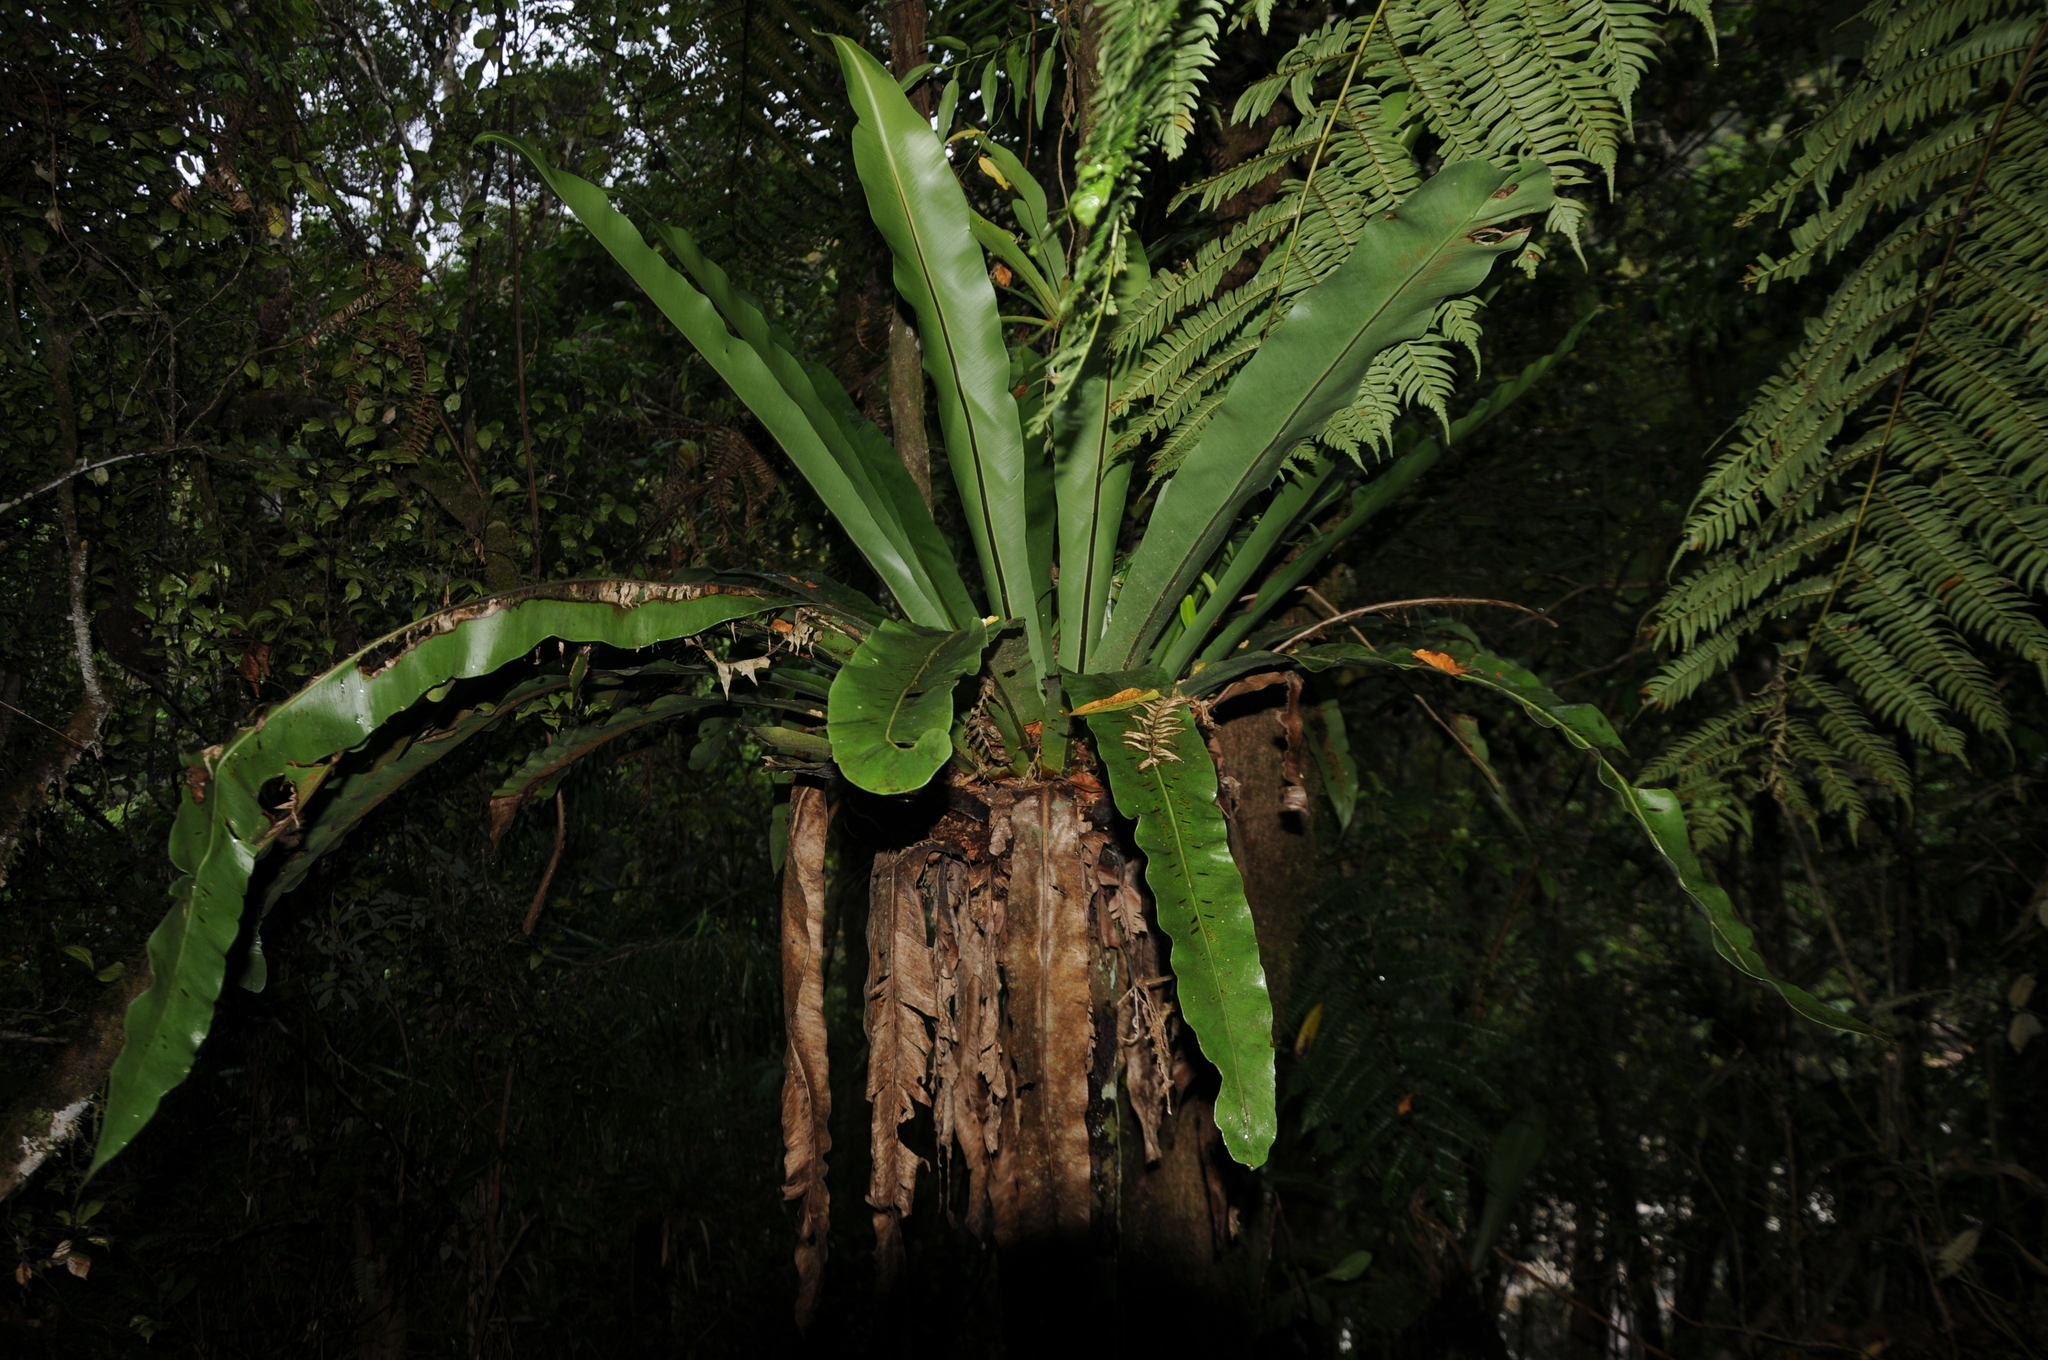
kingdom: Plantae
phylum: Tracheophyta
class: Polypodiopsida
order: Polypodiales
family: Aspleniaceae
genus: Asplenium
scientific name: Asplenium mauritianum
